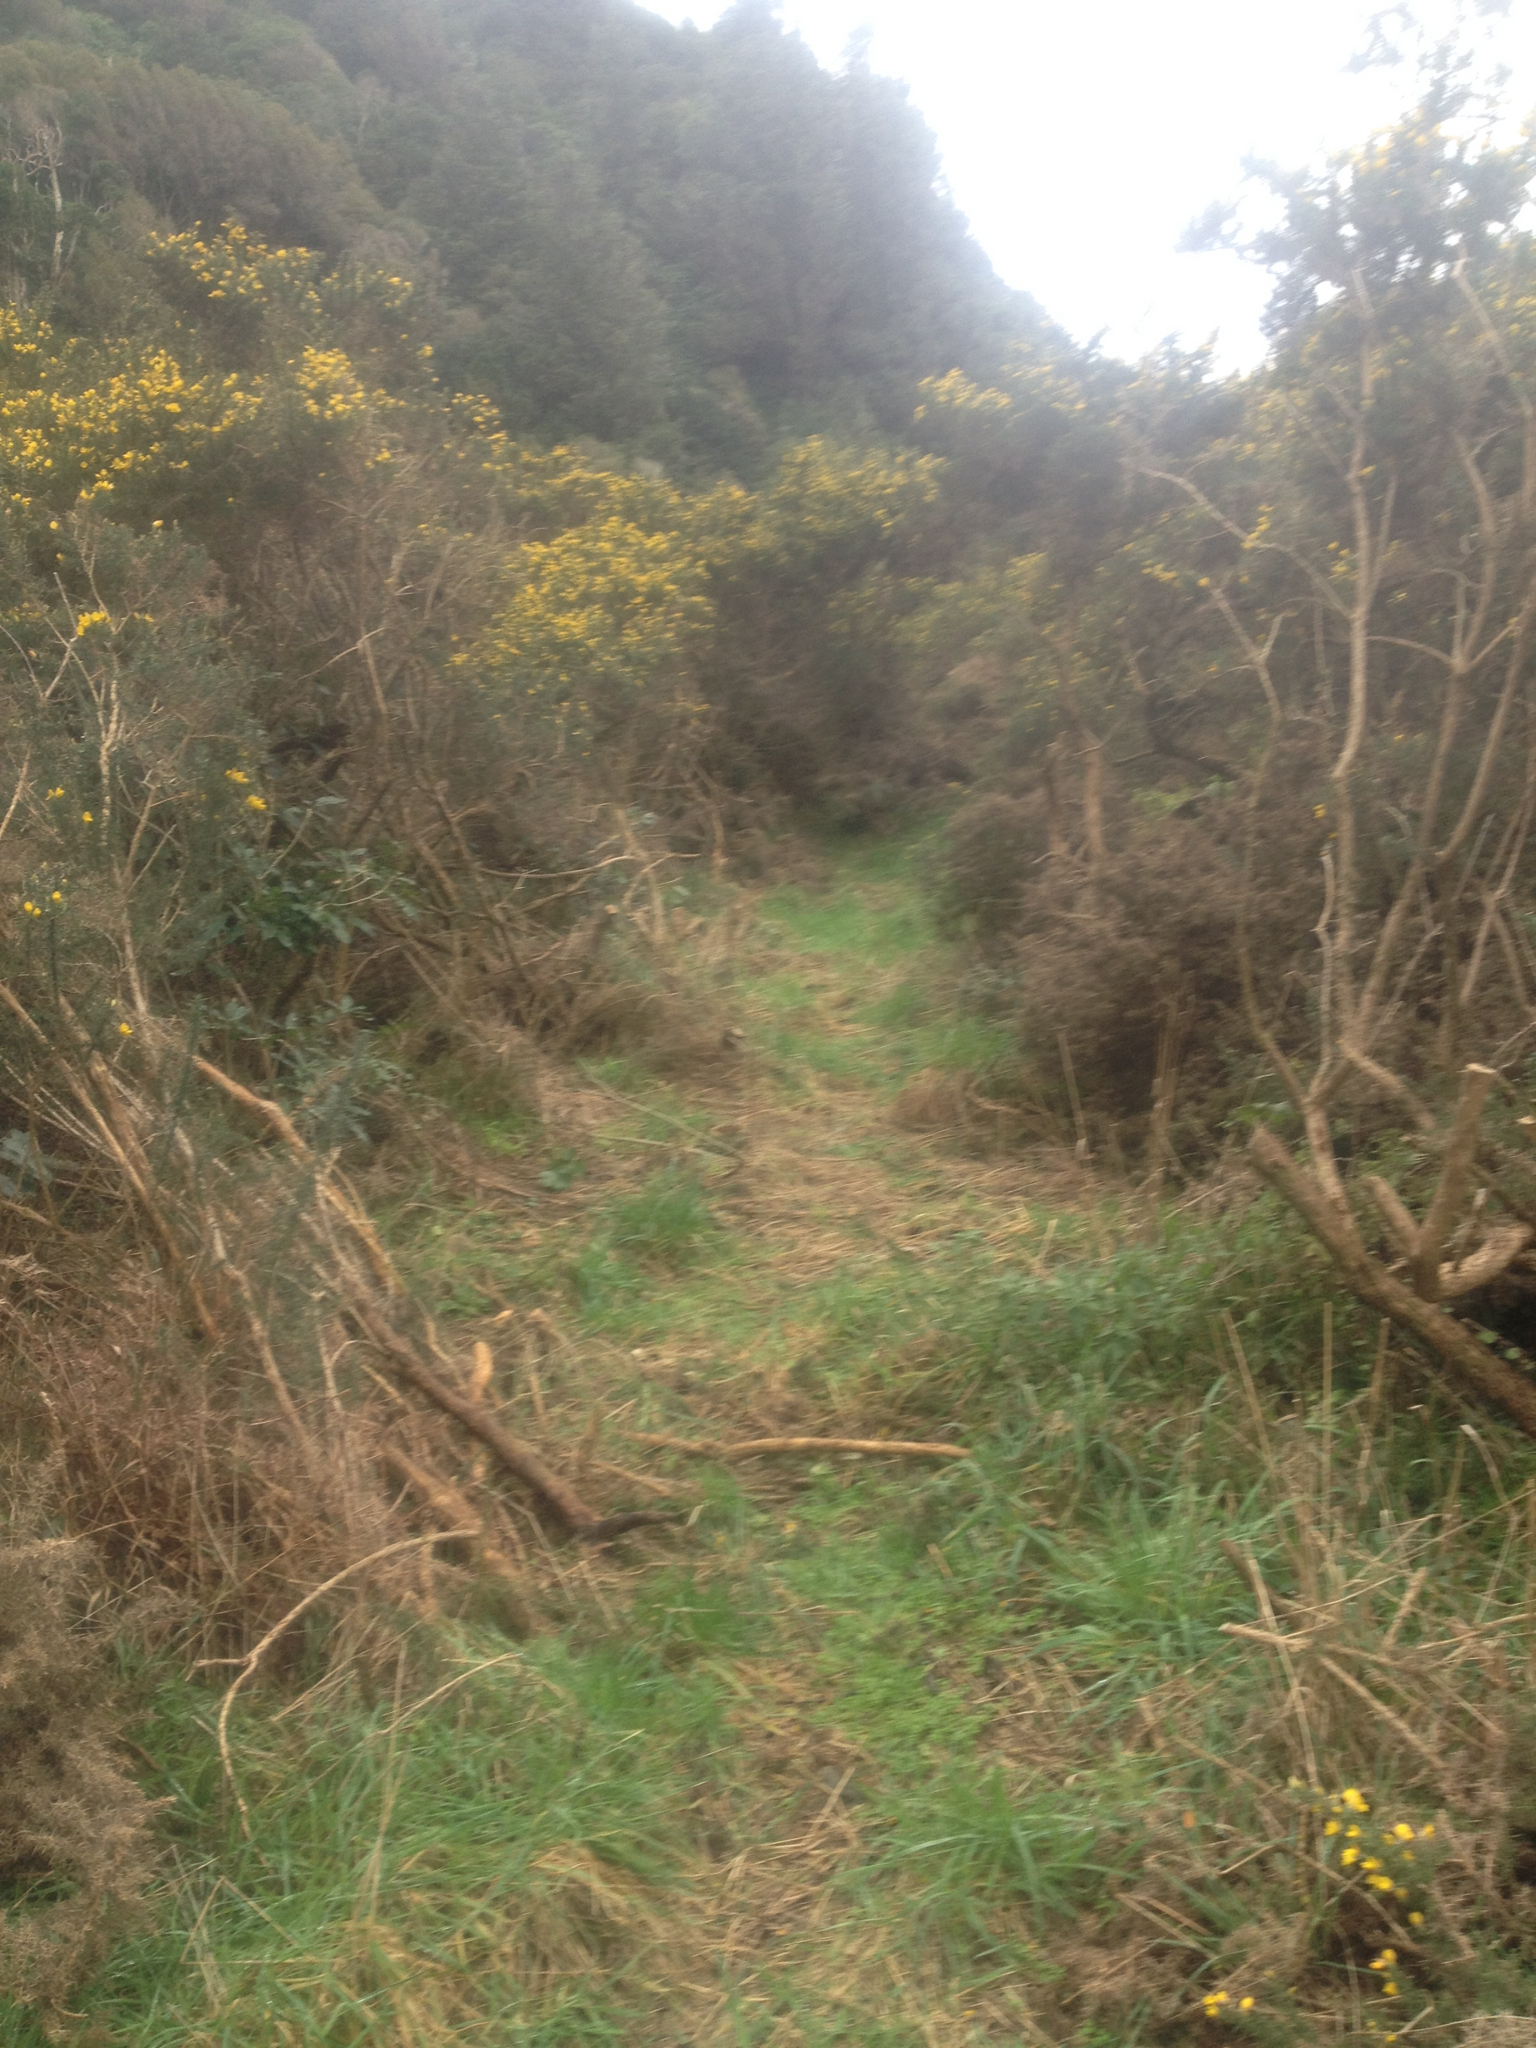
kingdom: Plantae
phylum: Tracheophyta
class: Magnoliopsida
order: Fabales
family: Fabaceae
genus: Ulex
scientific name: Ulex europaeus
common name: Common gorse
